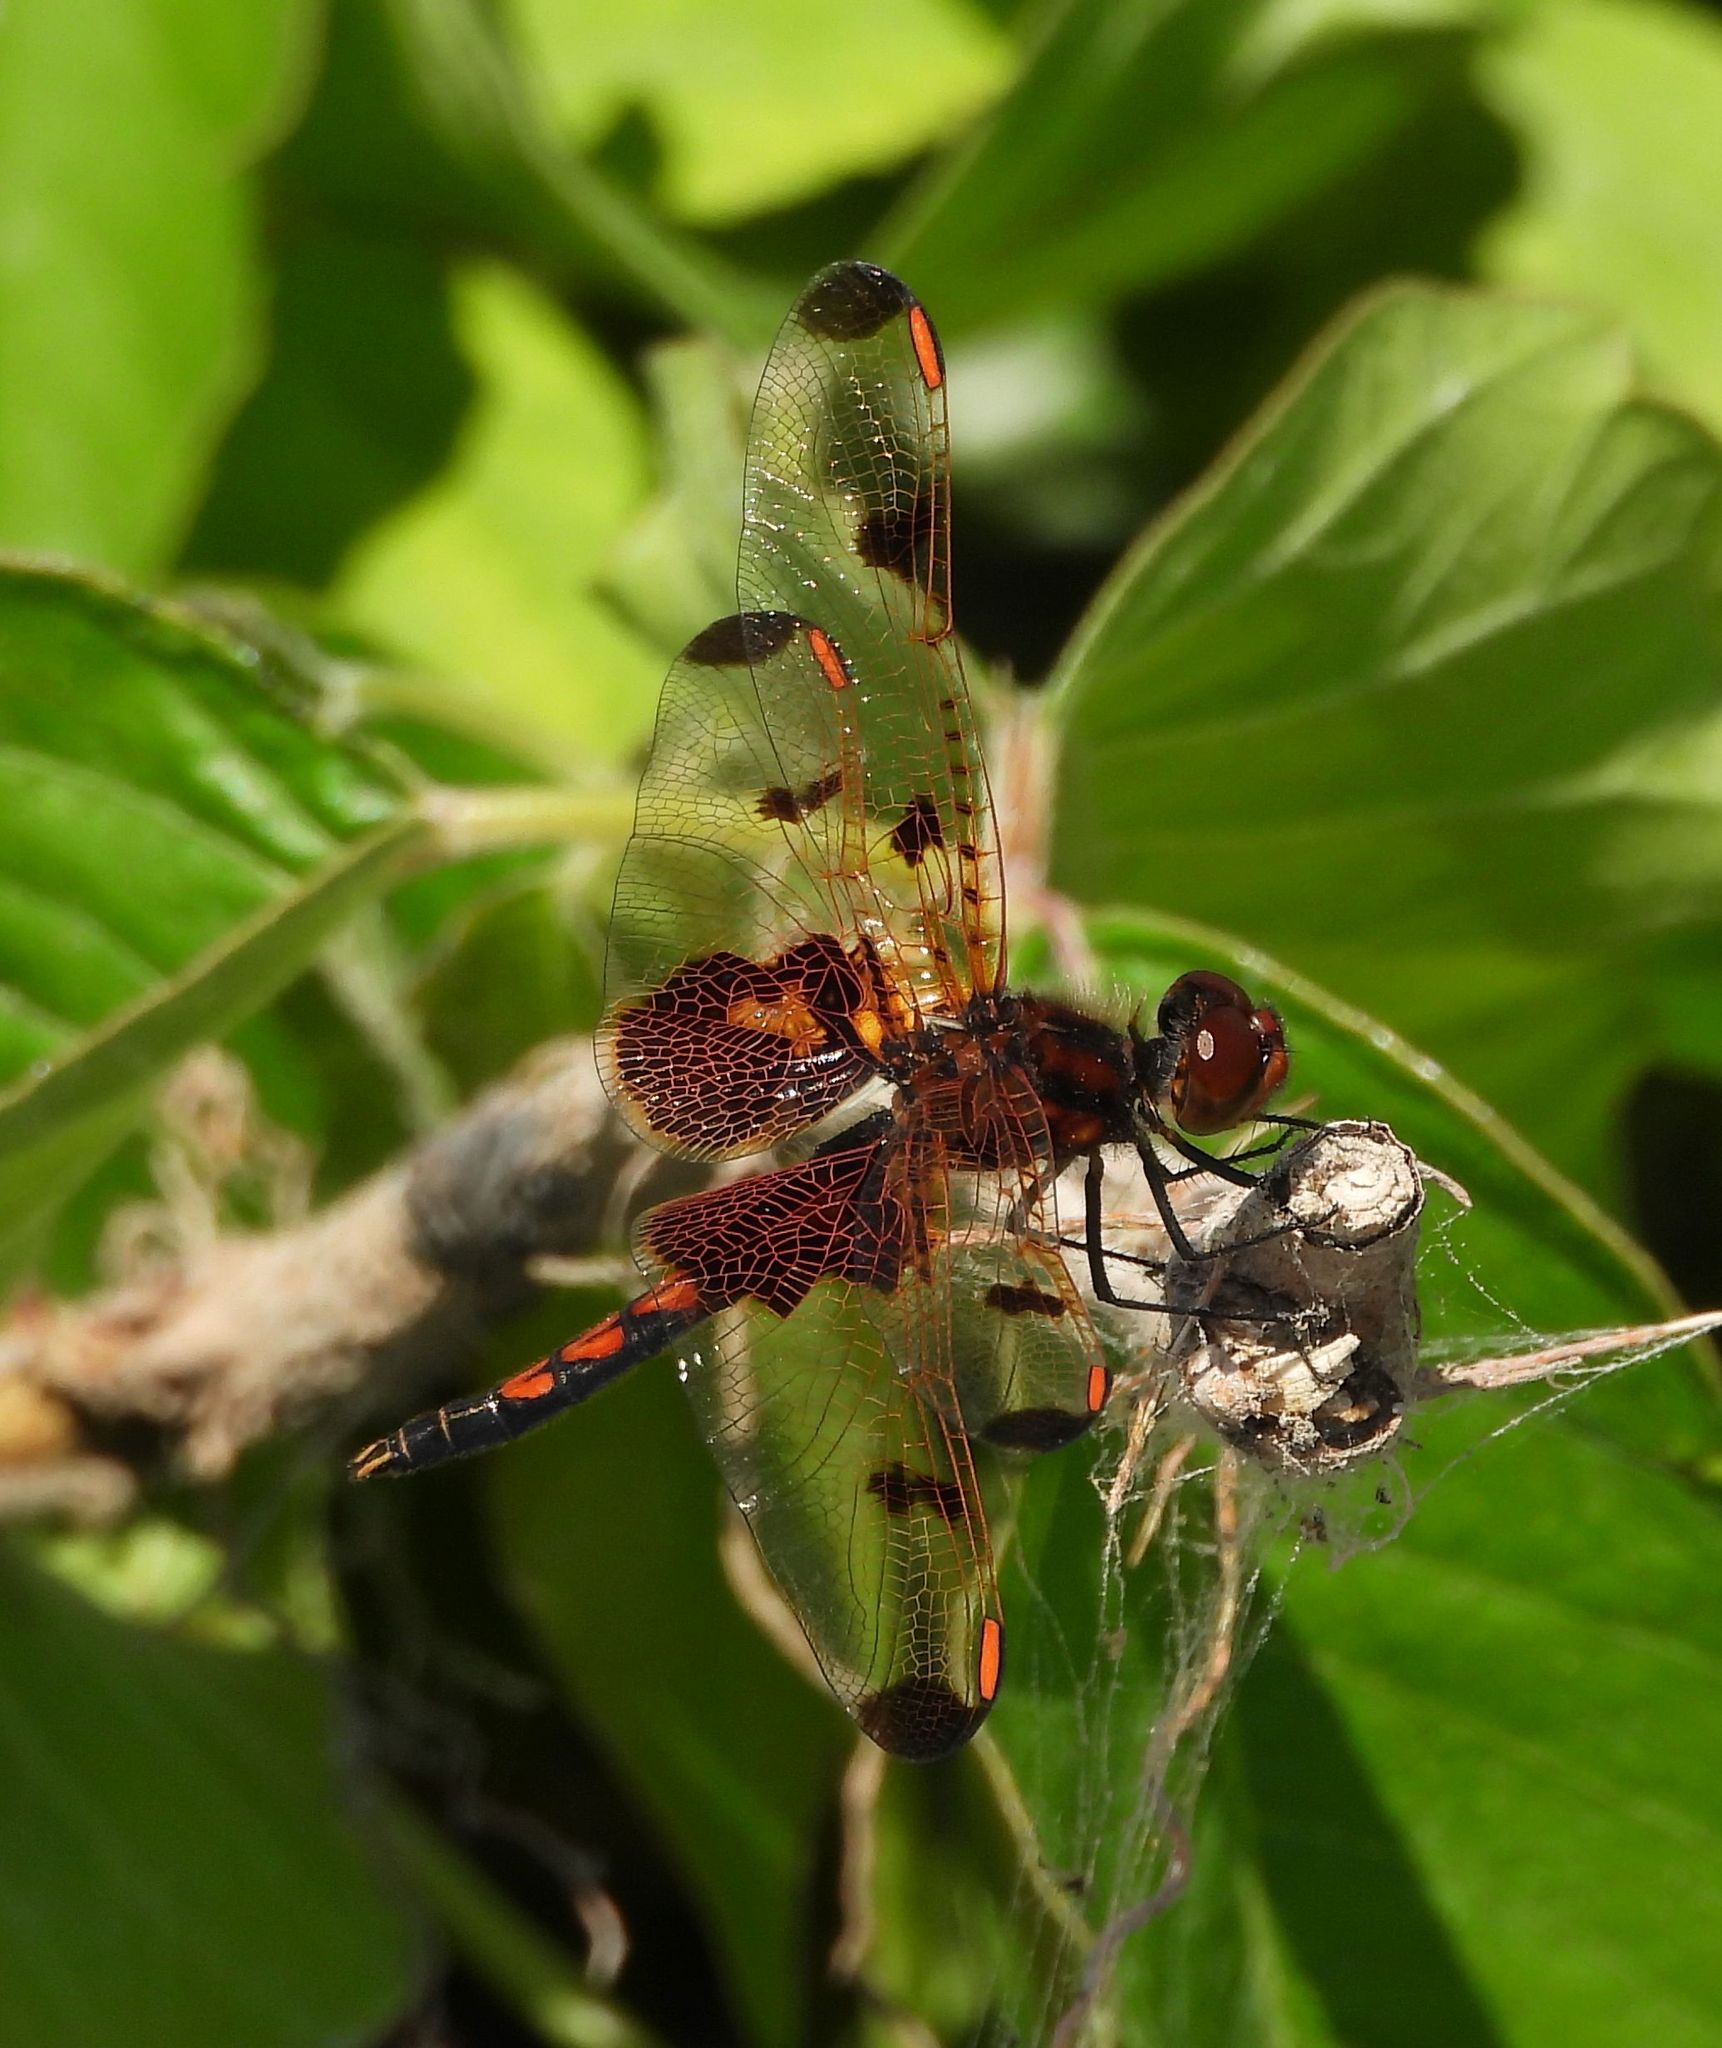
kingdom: Animalia
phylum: Arthropoda
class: Insecta
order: Odonata
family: Libellulidae
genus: Celithemis
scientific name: Celithemis elisa
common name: Calico pennant
